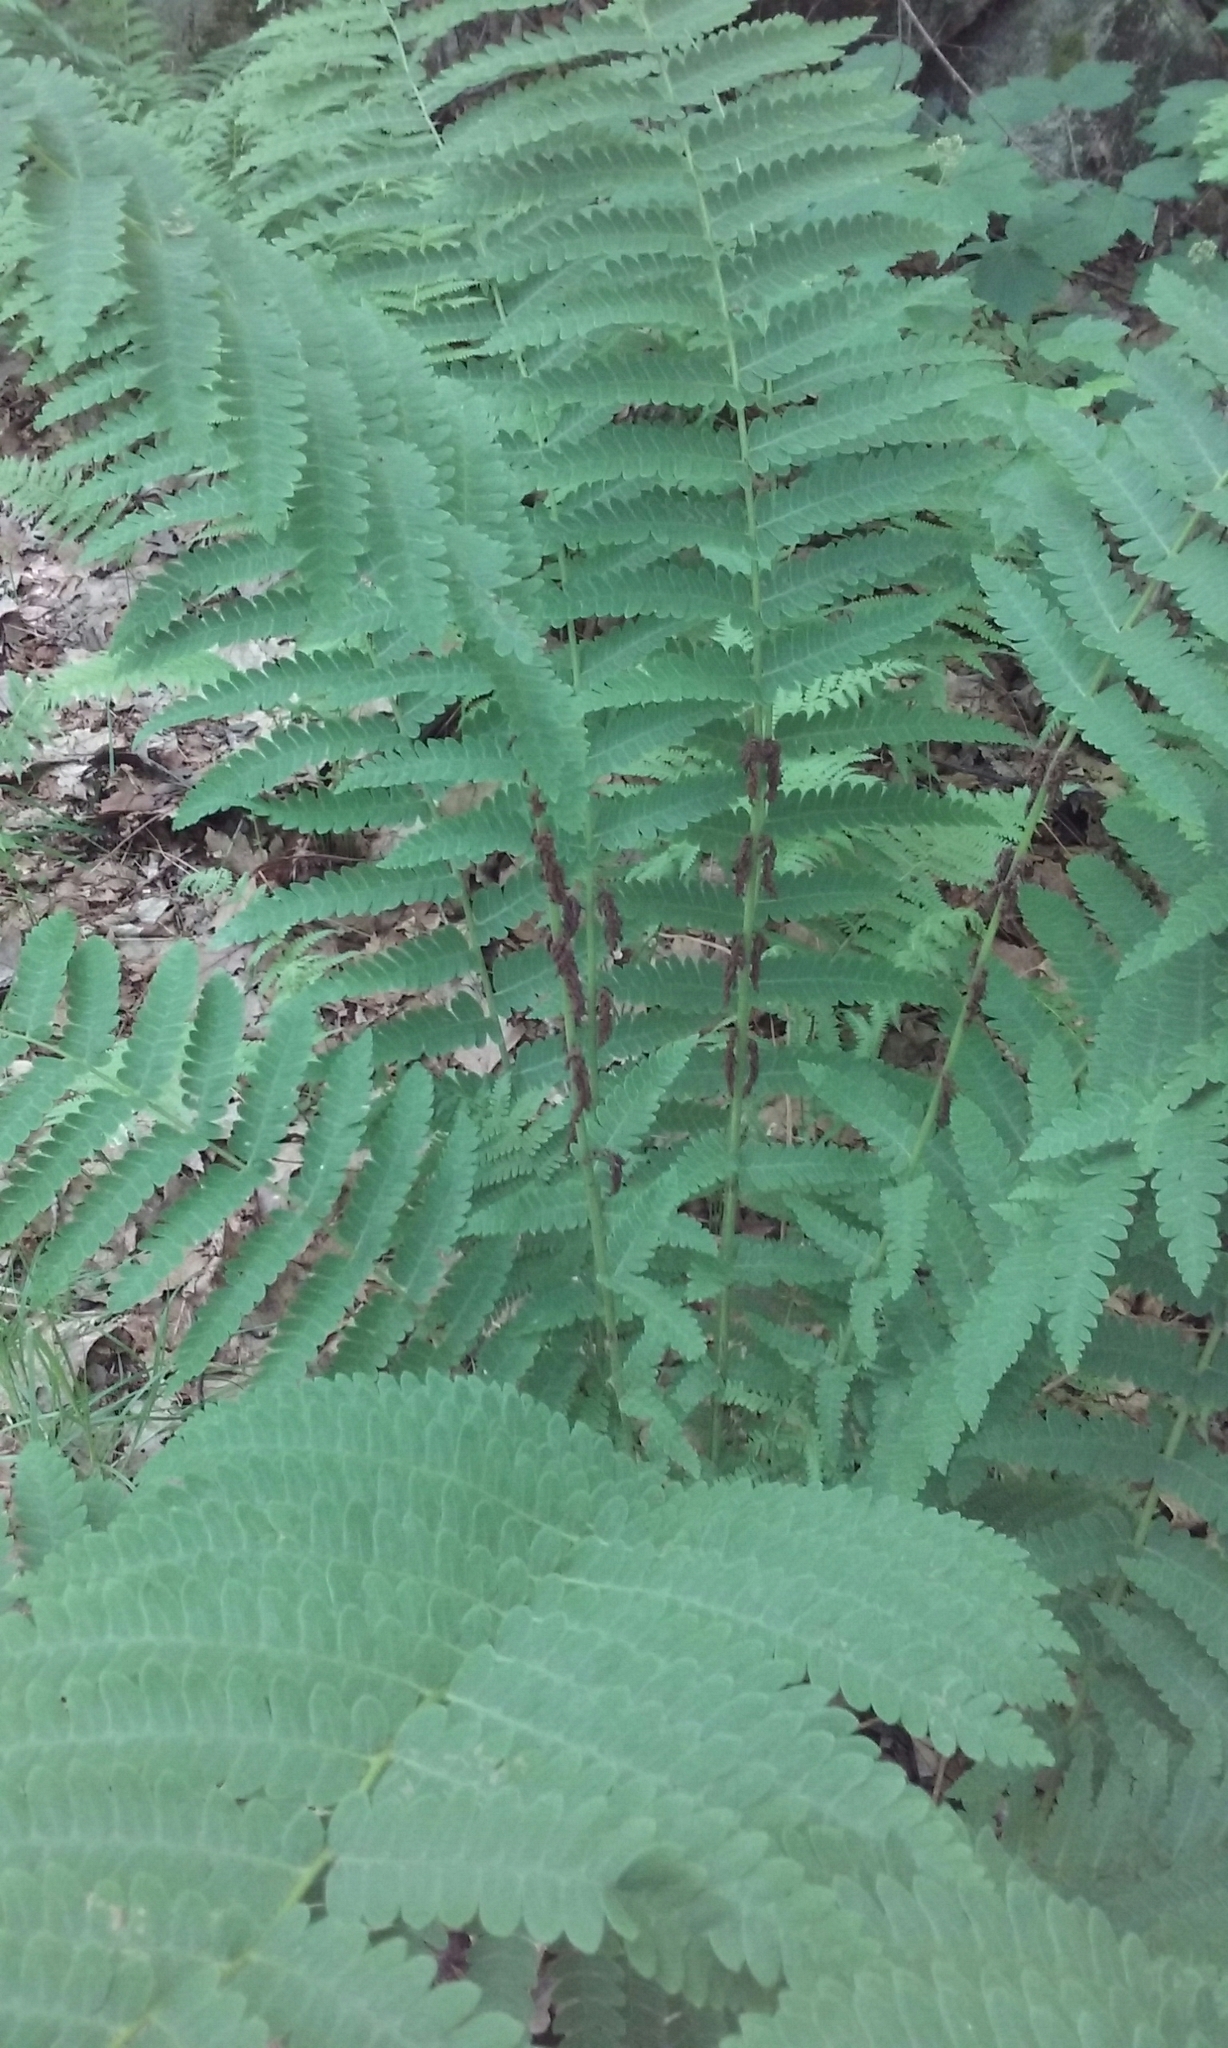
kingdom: Plantae
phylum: Tracheophyta
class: Polypodiopsida
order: Osmundales
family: Osmundaceae
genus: Claytosmunda
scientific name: Claytosmunda claytoniana
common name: Clayton's fern
